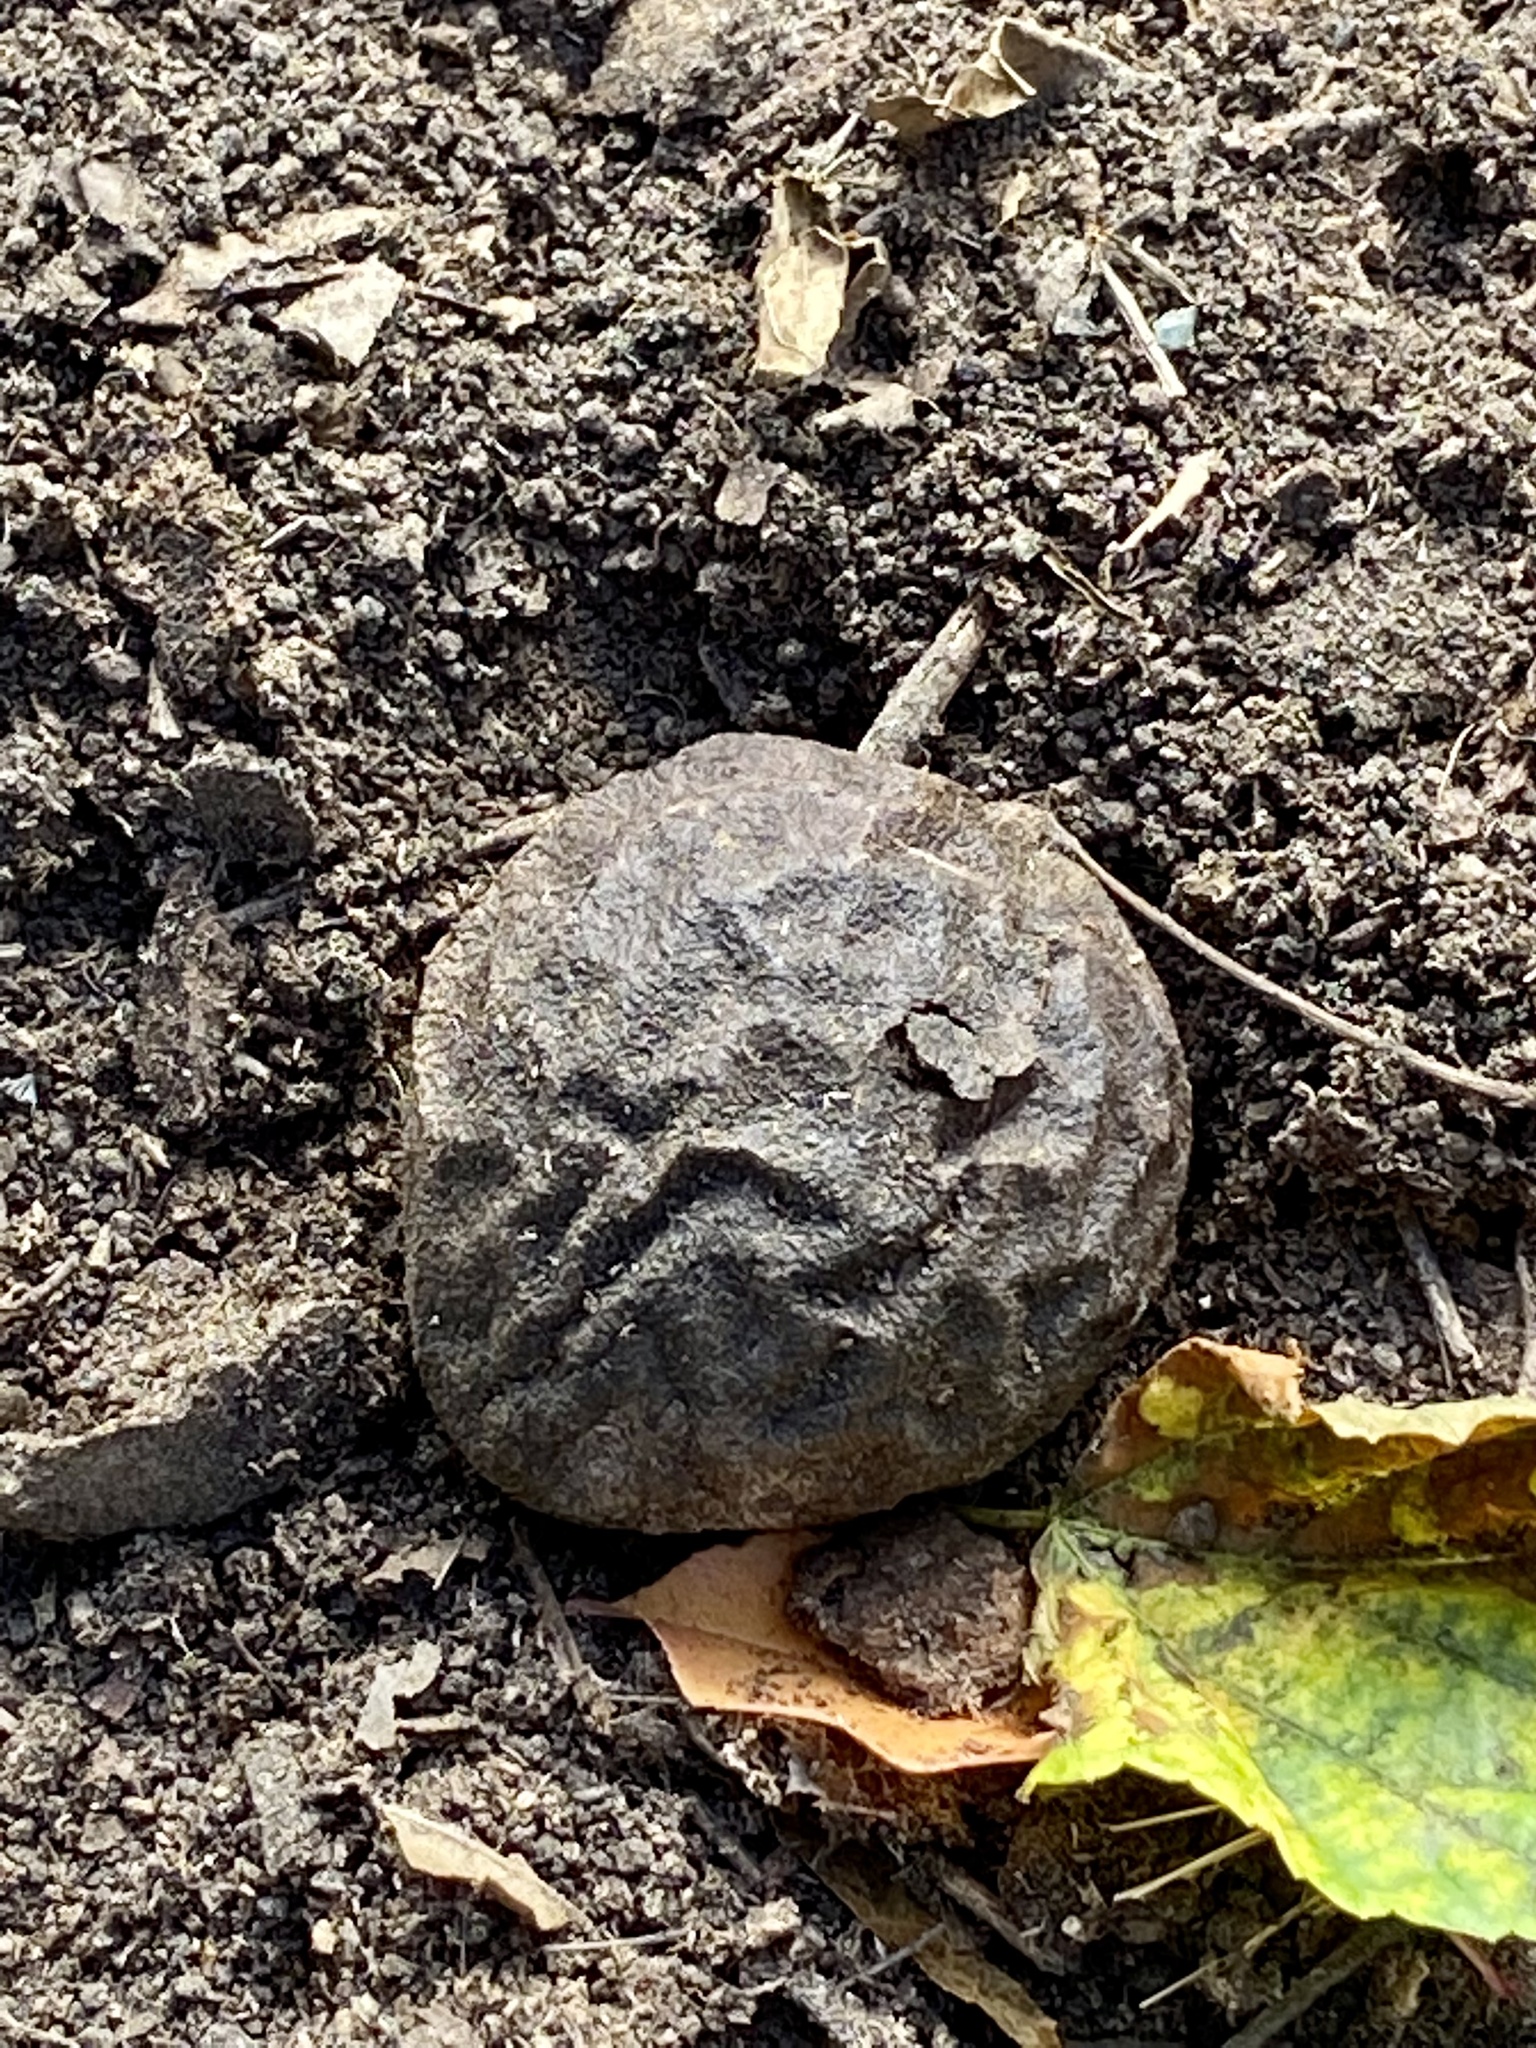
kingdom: Plantae
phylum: Tracheophyta
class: Magnoliopsida
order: Fagales
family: Juglandaceae
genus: Juglans
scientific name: Juglans nigra
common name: Black walnut
